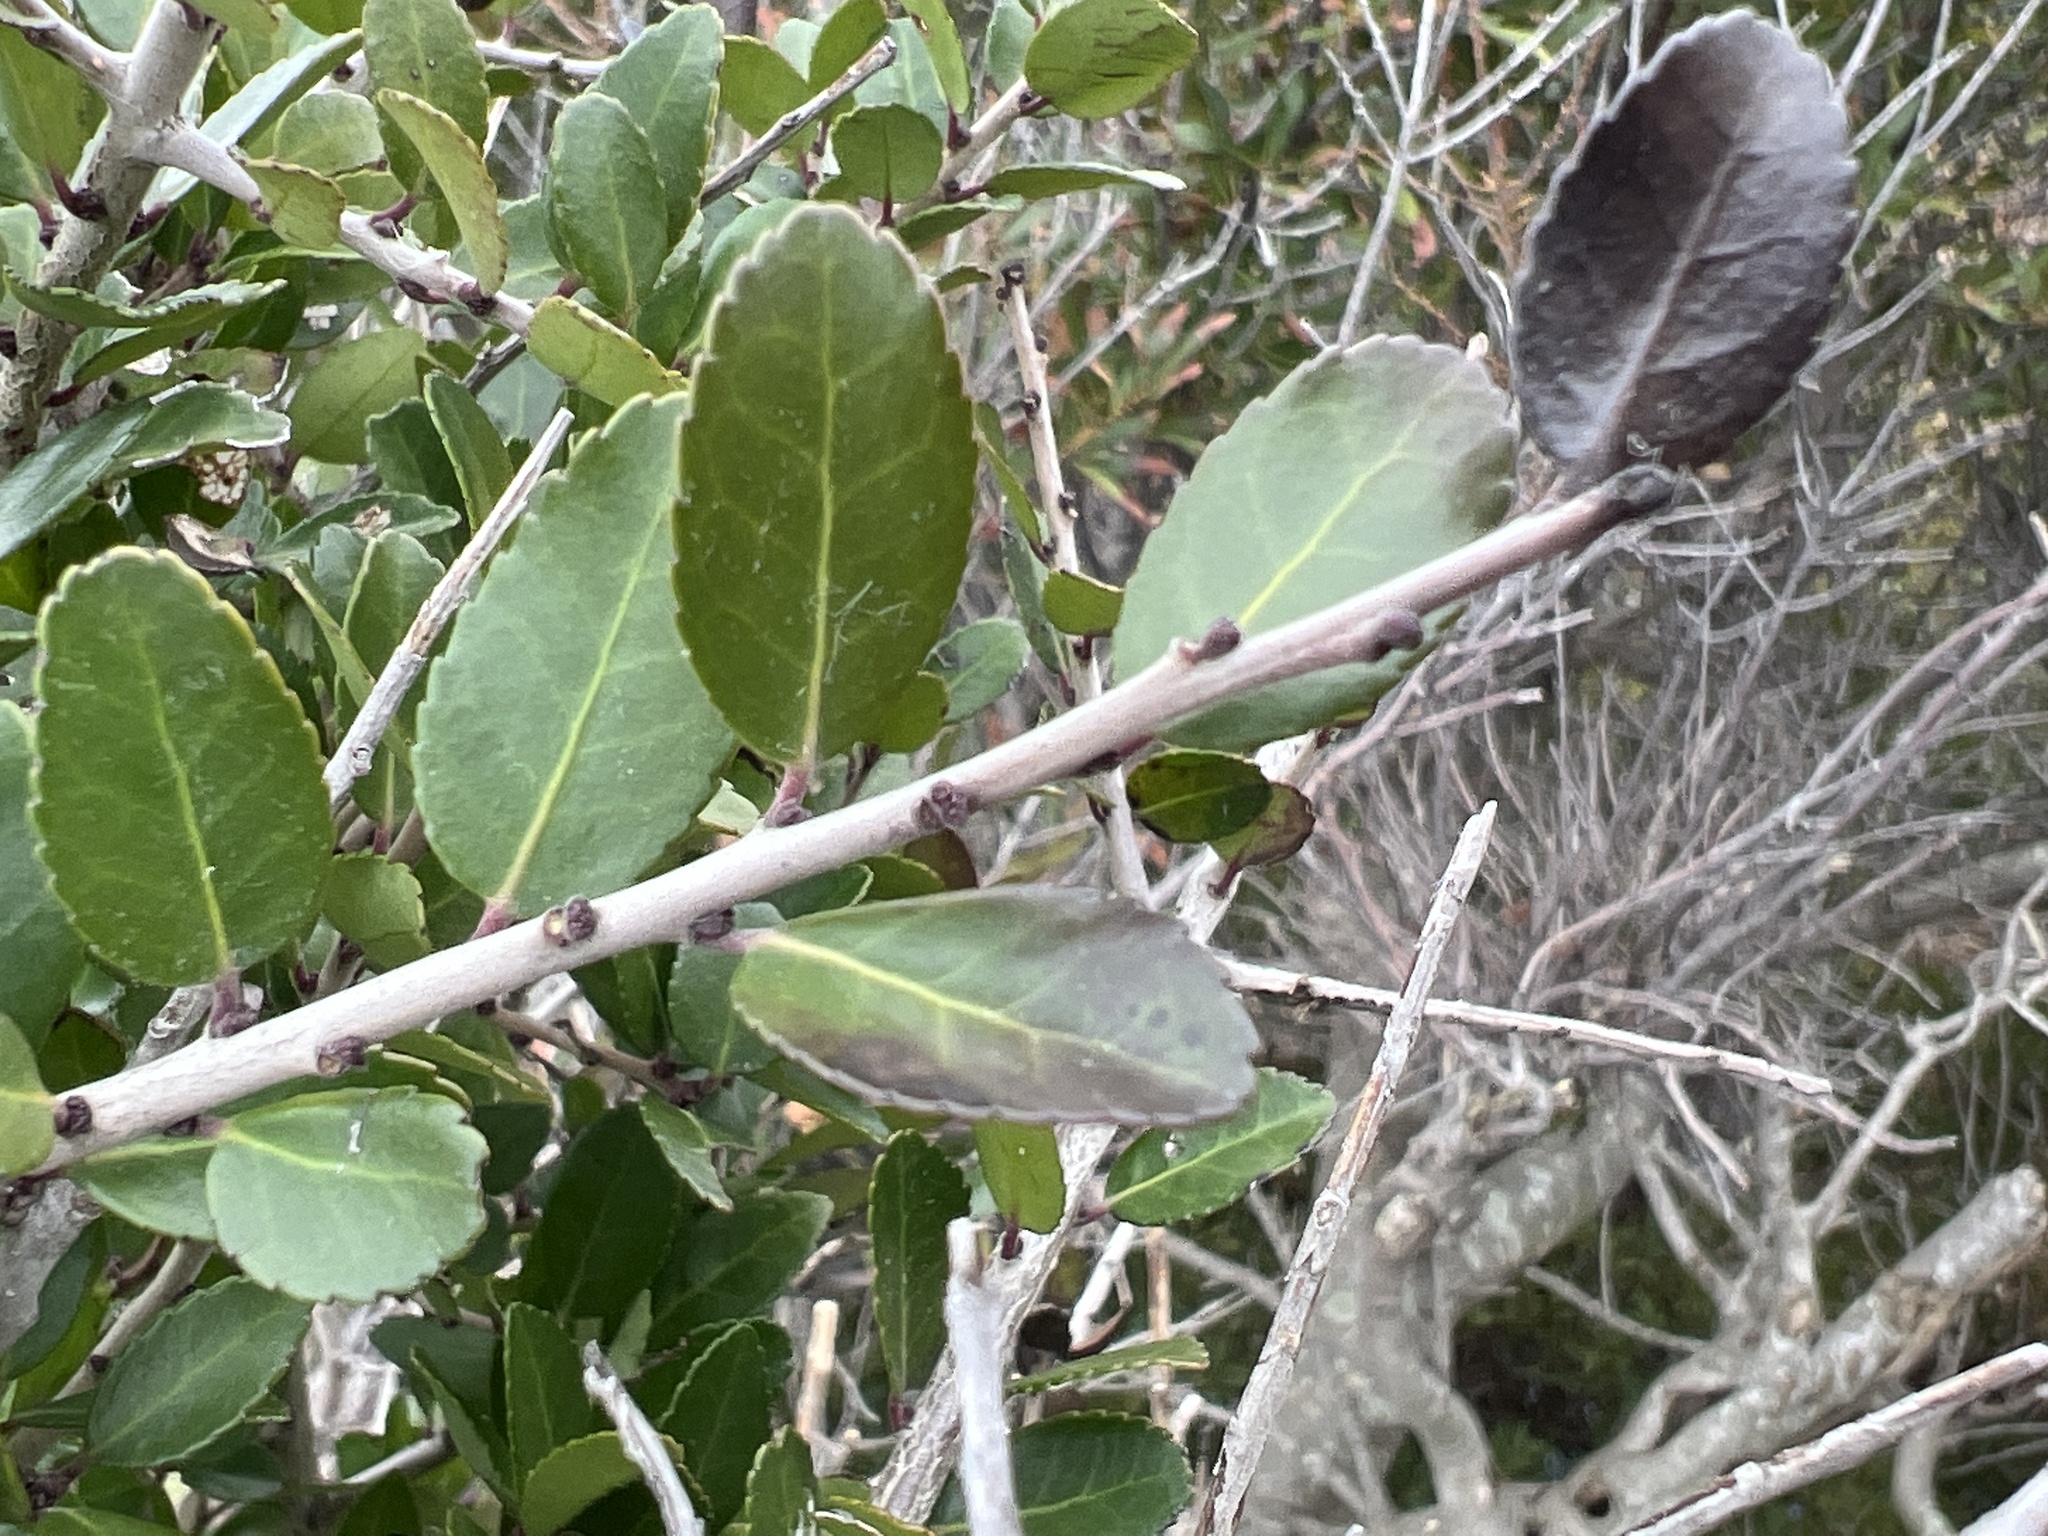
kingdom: Plantae
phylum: Tracheophyta
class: Magnoliopsida
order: Aquifoliales
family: Aquifoliaceae
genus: Ilex
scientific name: Ilex vomitoria
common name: Yaupon holly
